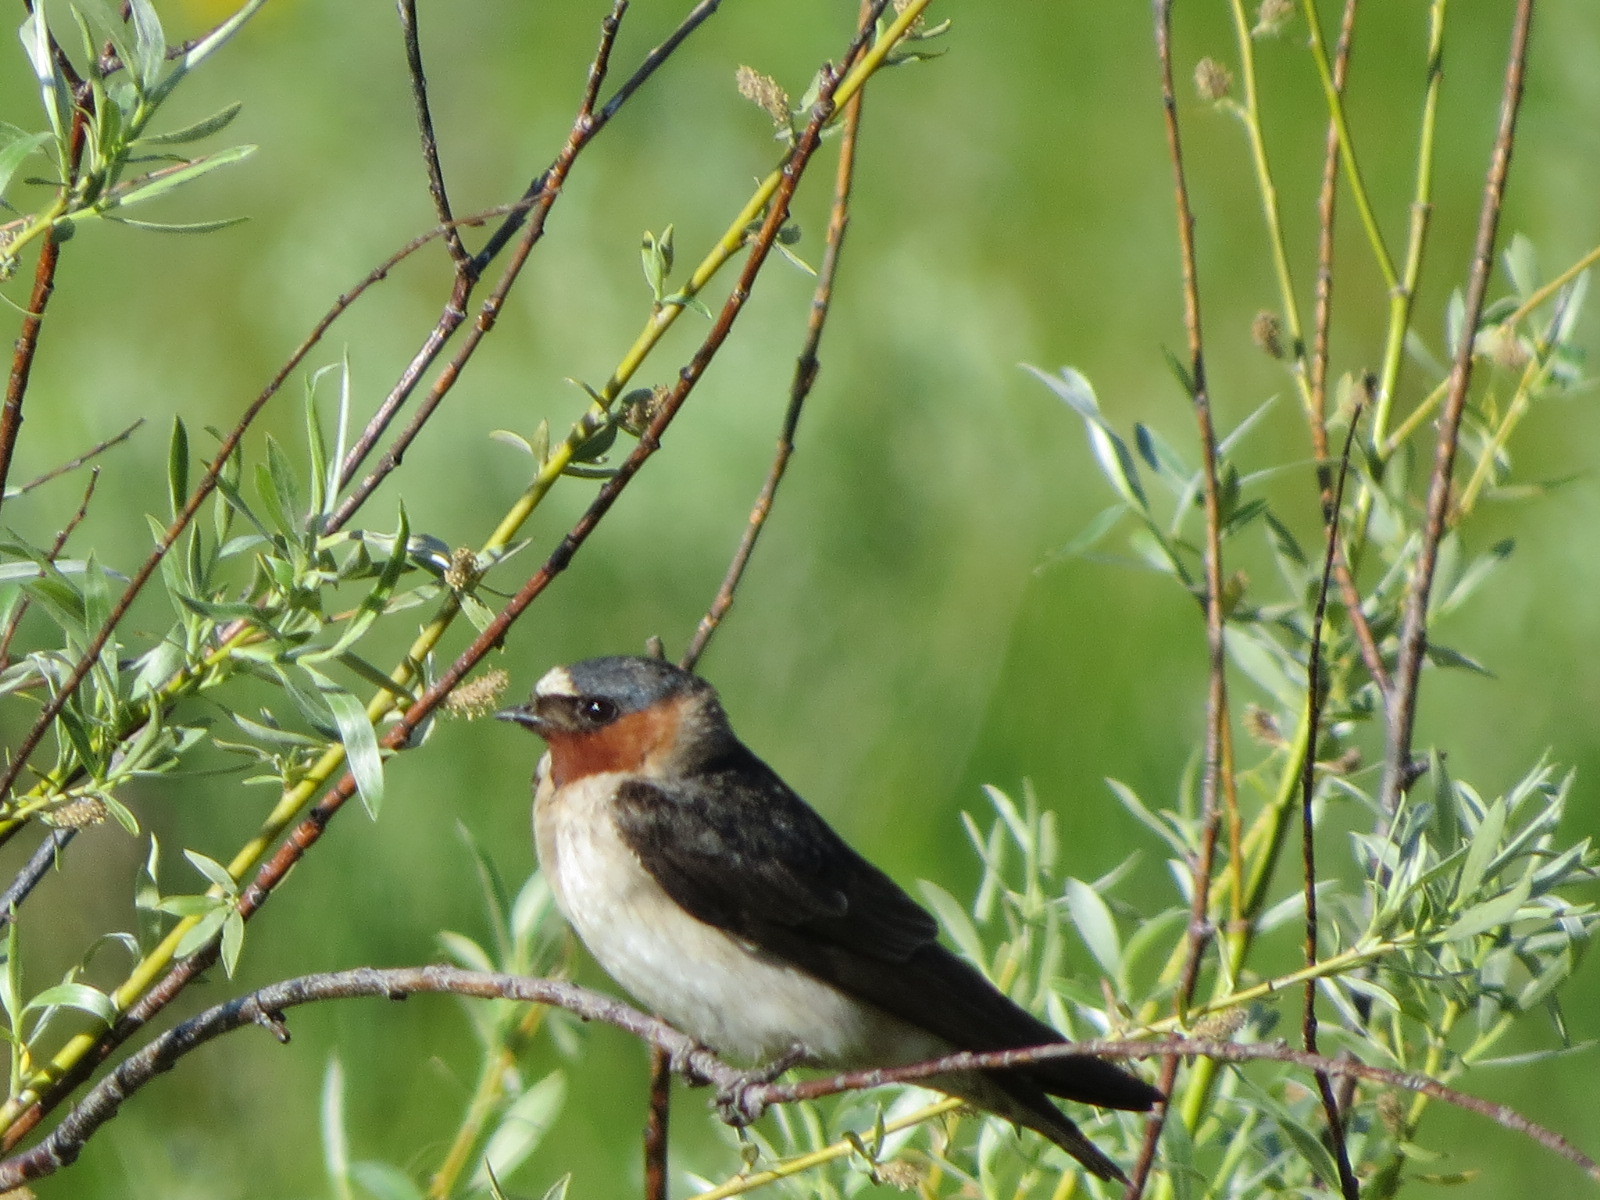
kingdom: Animalia
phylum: Chordata
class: Aves
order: Passeriformes
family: Hirundinidae
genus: Petrochelidon
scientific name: Petrochelidon pyrrhonota
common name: American cliff swallow
